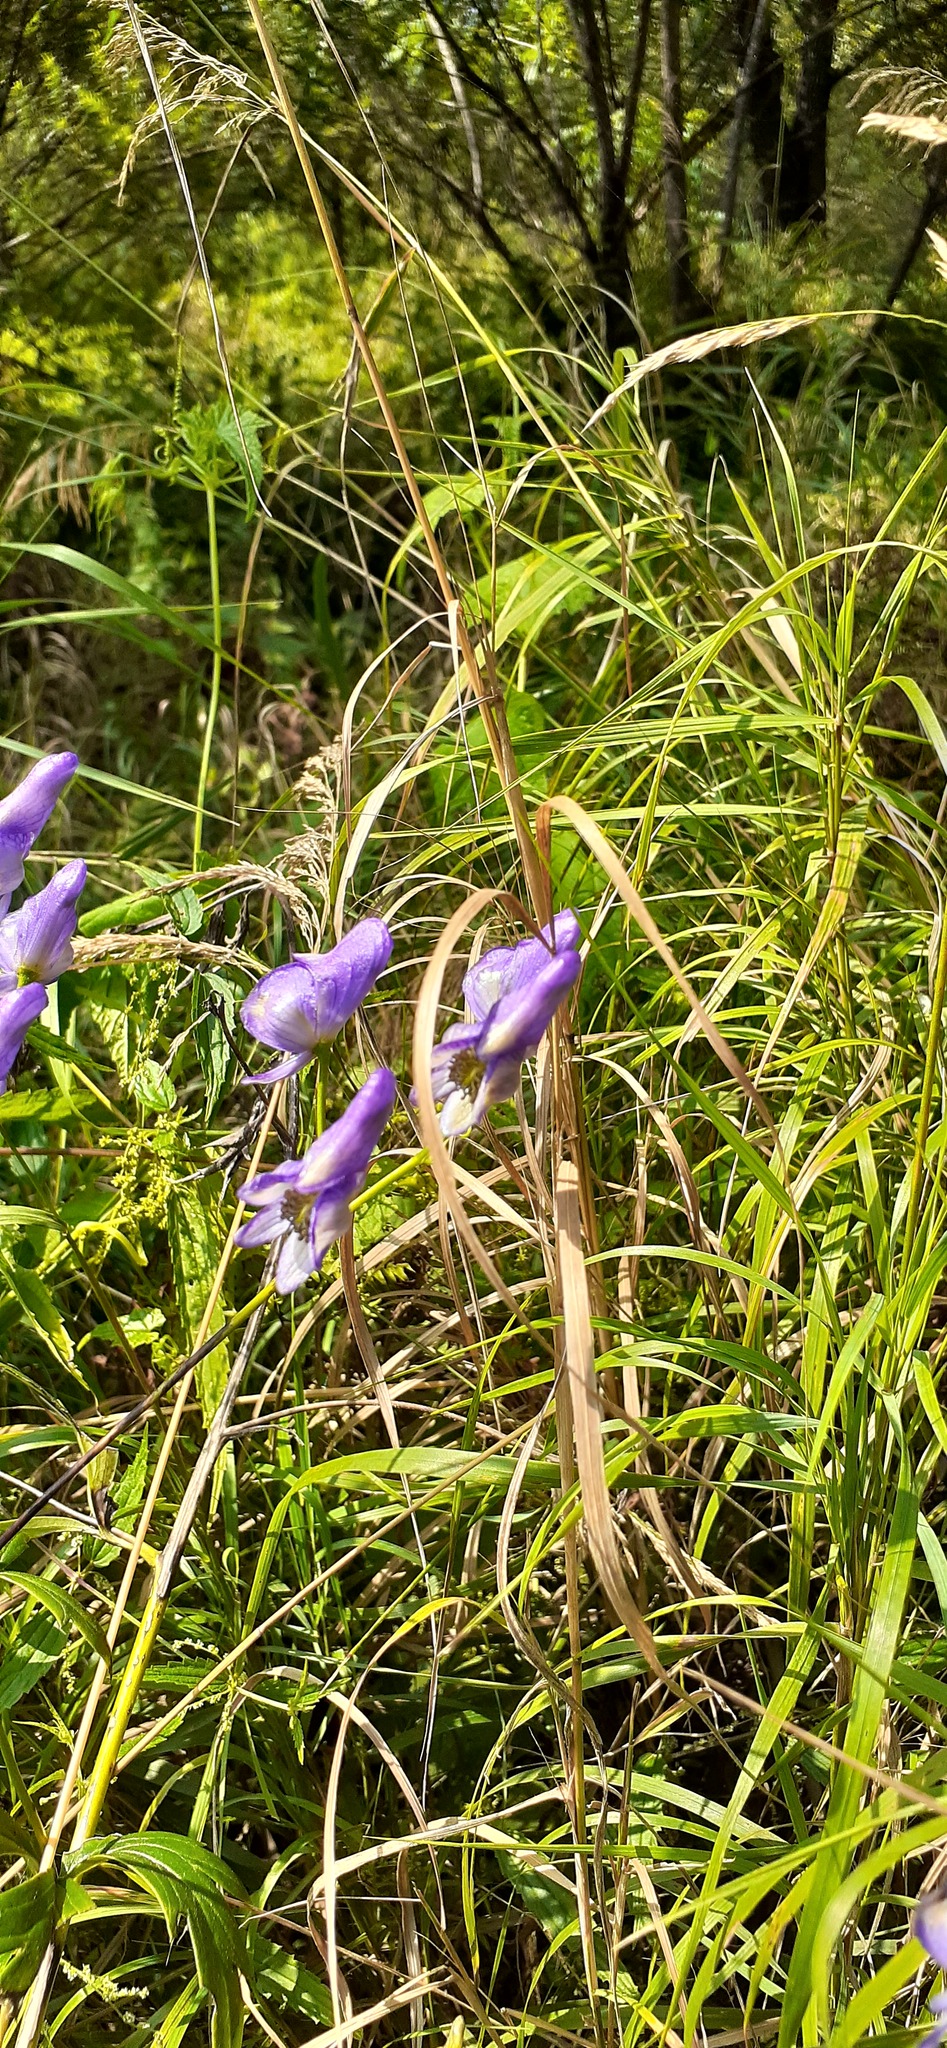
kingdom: Plantae
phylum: Tracheophyta
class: Magnoliopsida
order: Ranunculales
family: Ranunculaceae
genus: Aconitum
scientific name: Aconitum volubile
